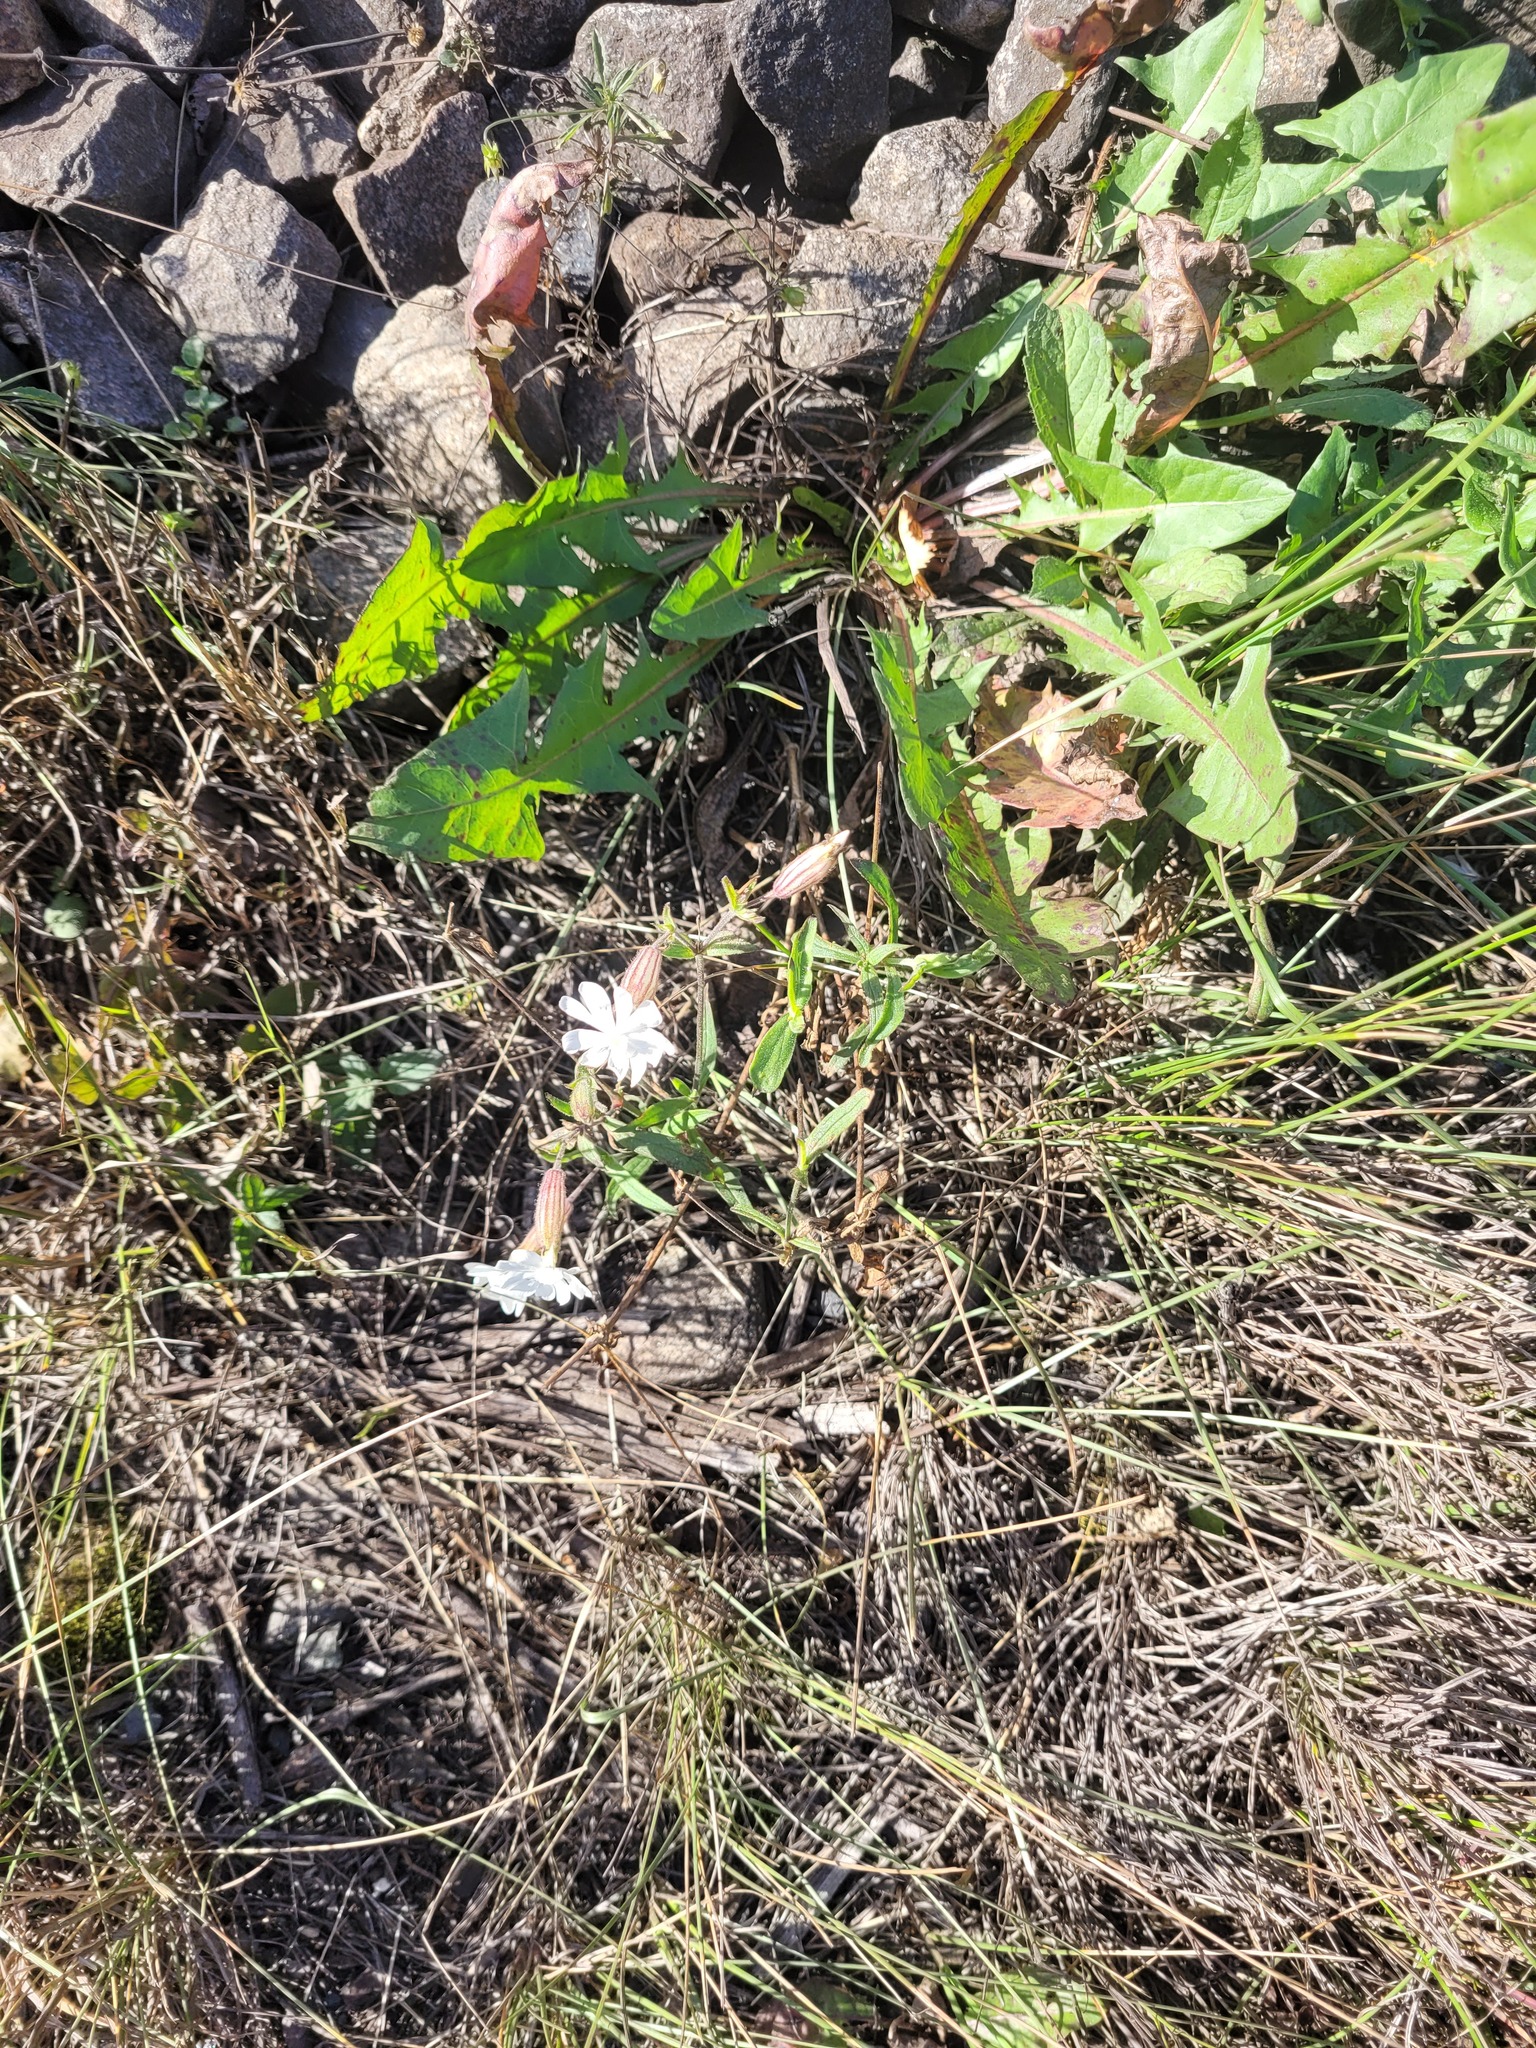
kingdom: Plantae
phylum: Tracheophyta
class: Magnoliopsida
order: Caryophyllales
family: Caryophyllaceae
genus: Silene
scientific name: Silene latifolia
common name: White campion
